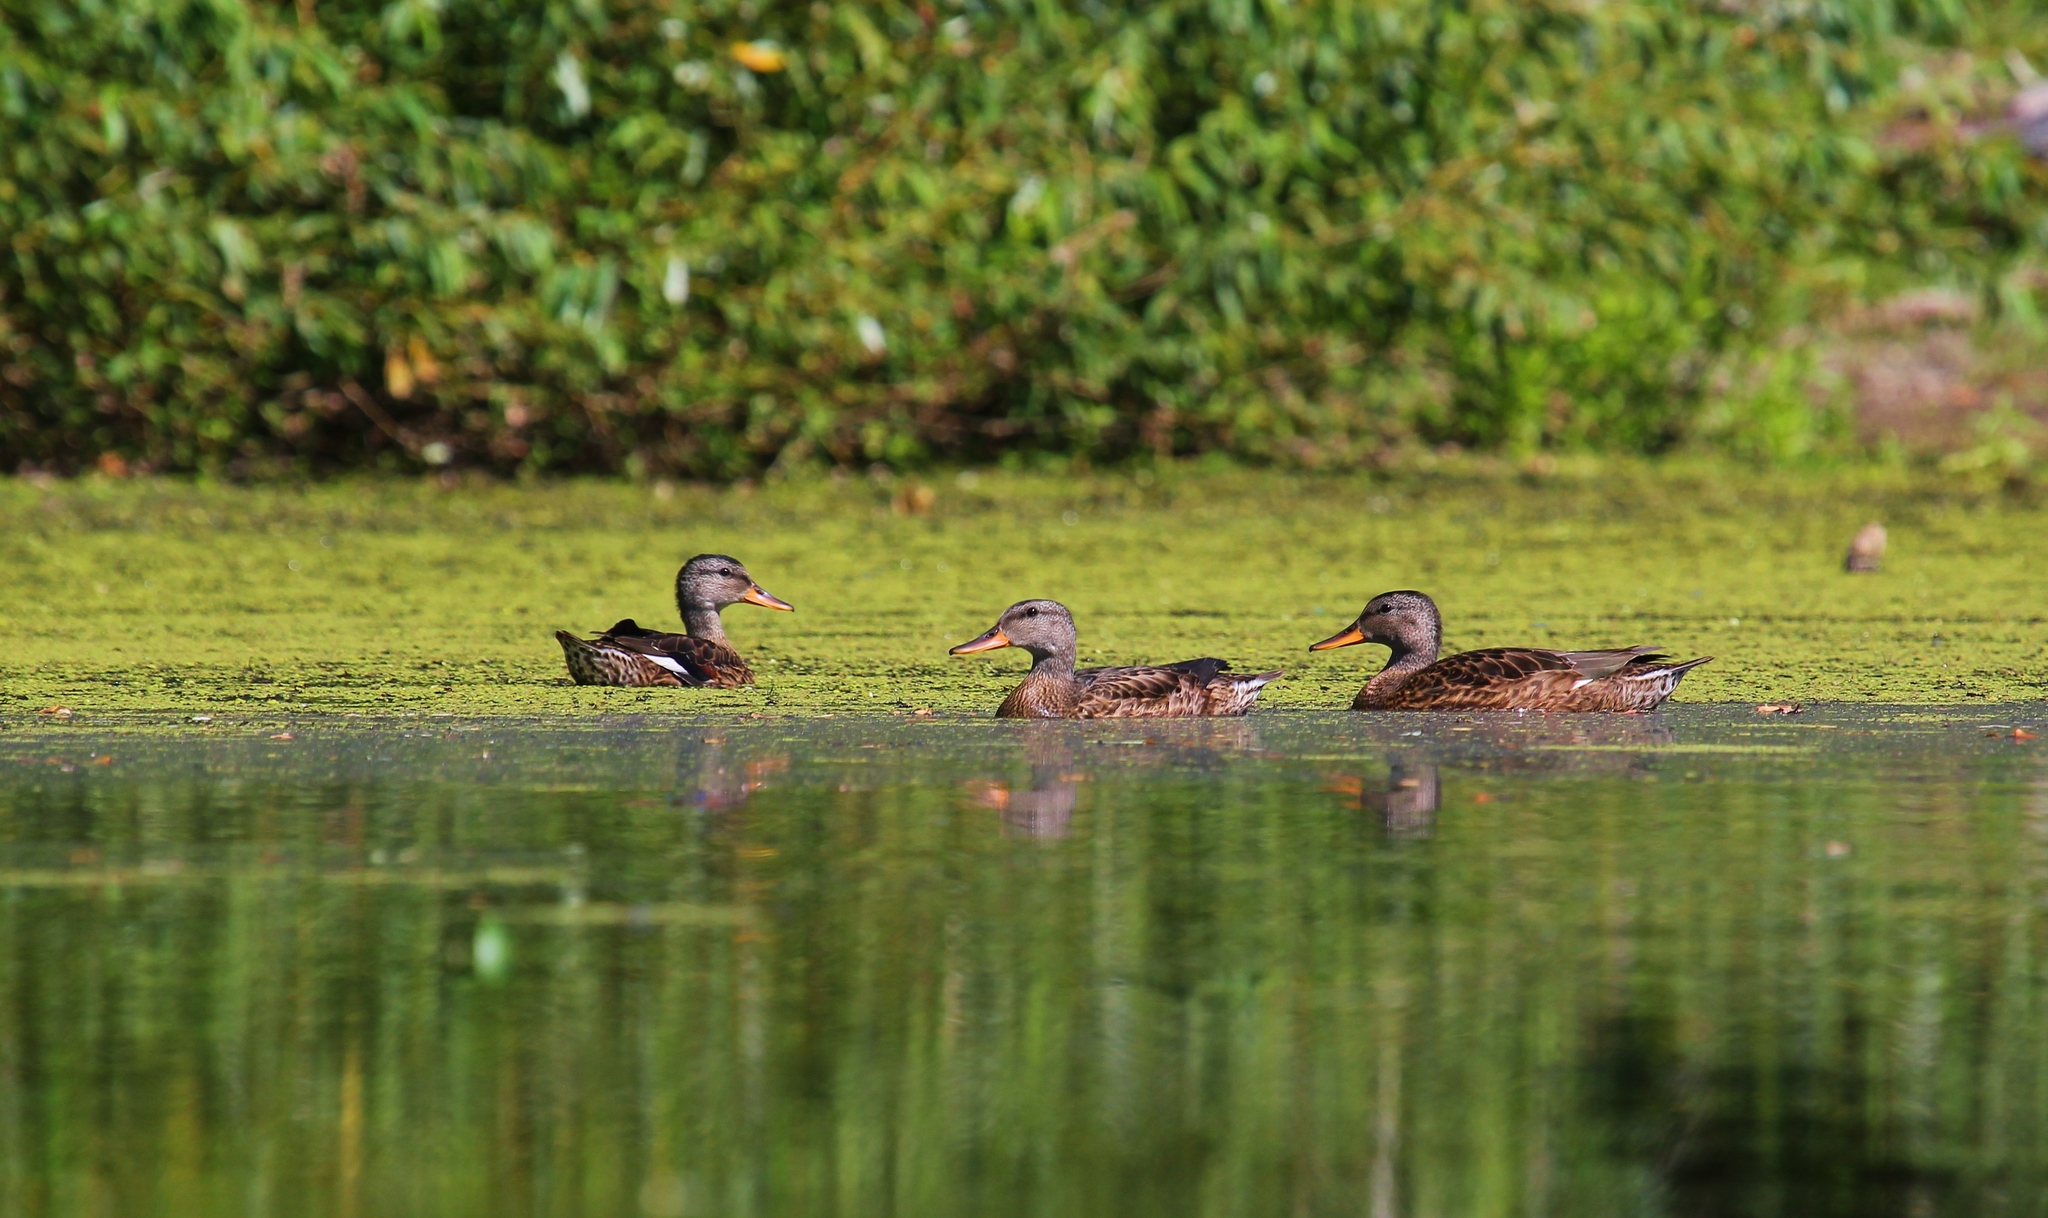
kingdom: Animalia
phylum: Chordata
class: Aves
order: Anseriformes
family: Anatidae
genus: Mareca
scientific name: Mareca strepera
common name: Gadwall
